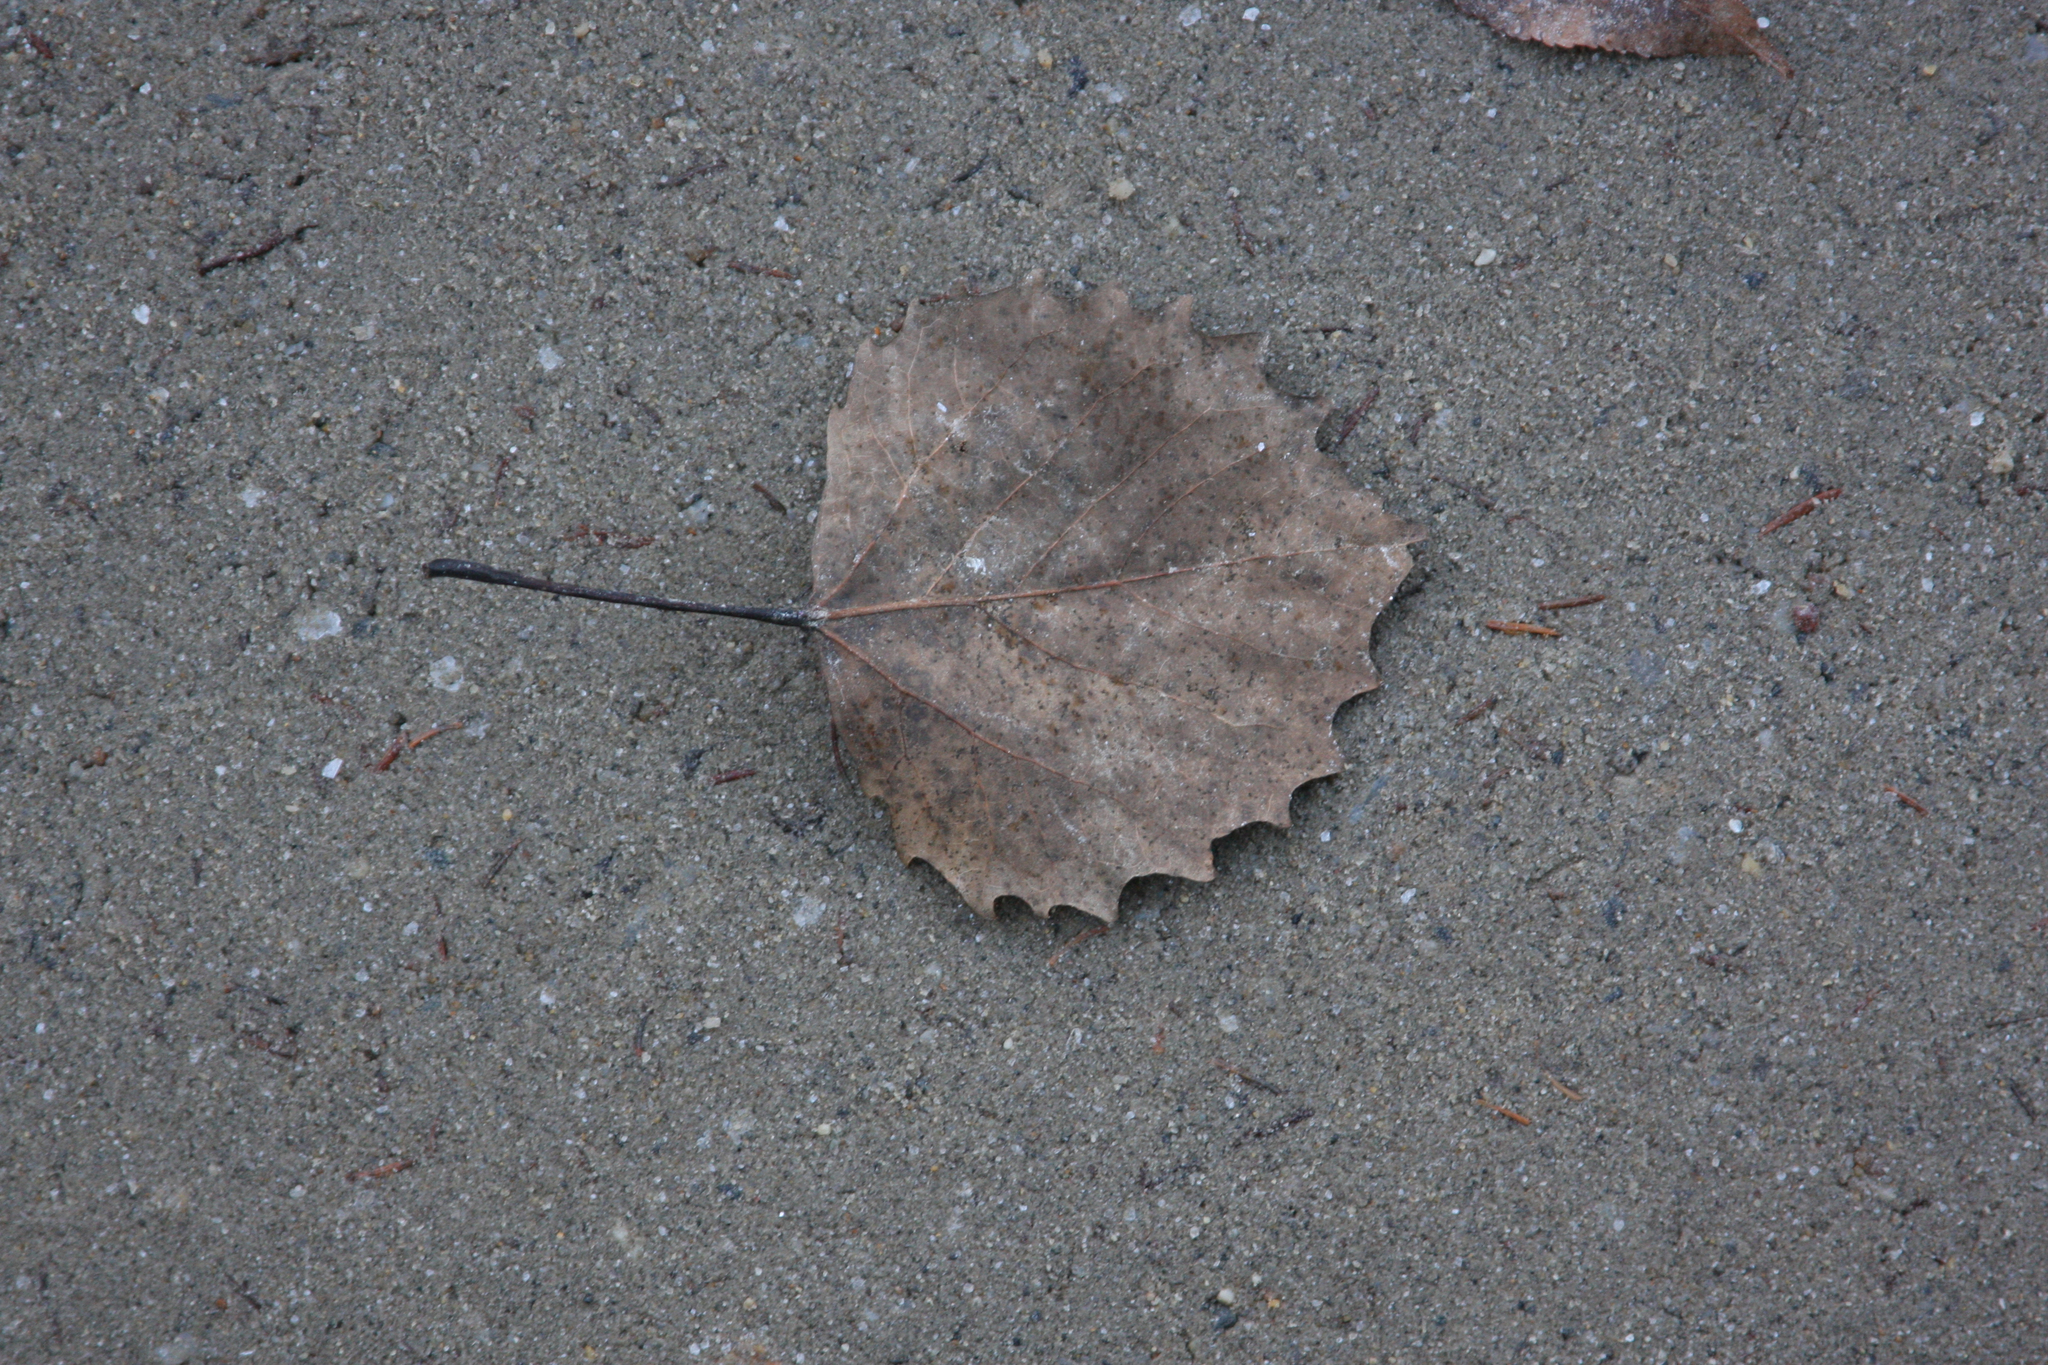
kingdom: Plantae
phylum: Tracheophyta
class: Magnoliopsida
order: Malpighiales
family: Salicaceae
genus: Populus
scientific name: Populus grandidentata
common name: Bigtooth aspen
